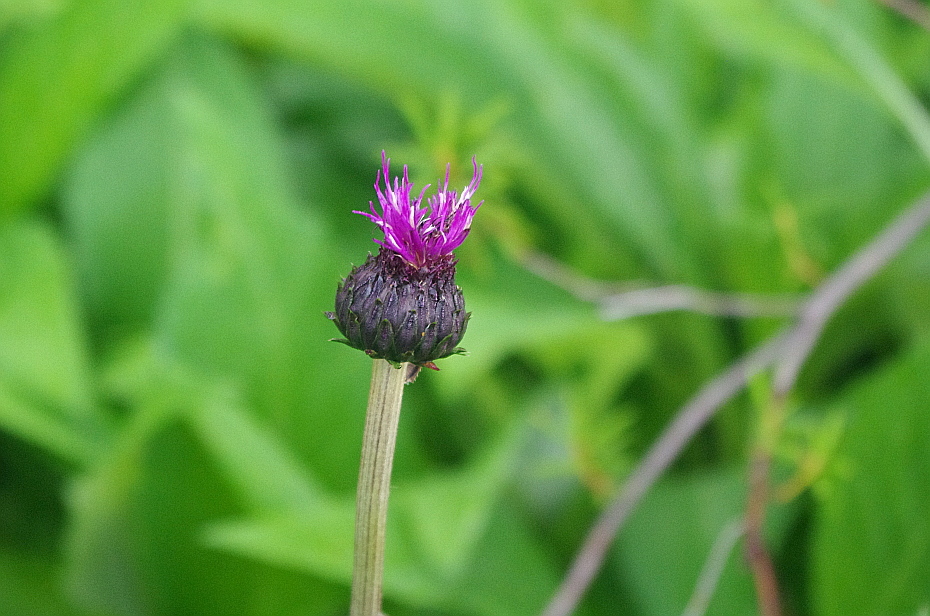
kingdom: Plantae
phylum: Tracheophyta
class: Magnoliopsida
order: Asterales
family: Asteraceae
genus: Cirsium
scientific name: Cirsium heterophyllum
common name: Melancholy thistle
